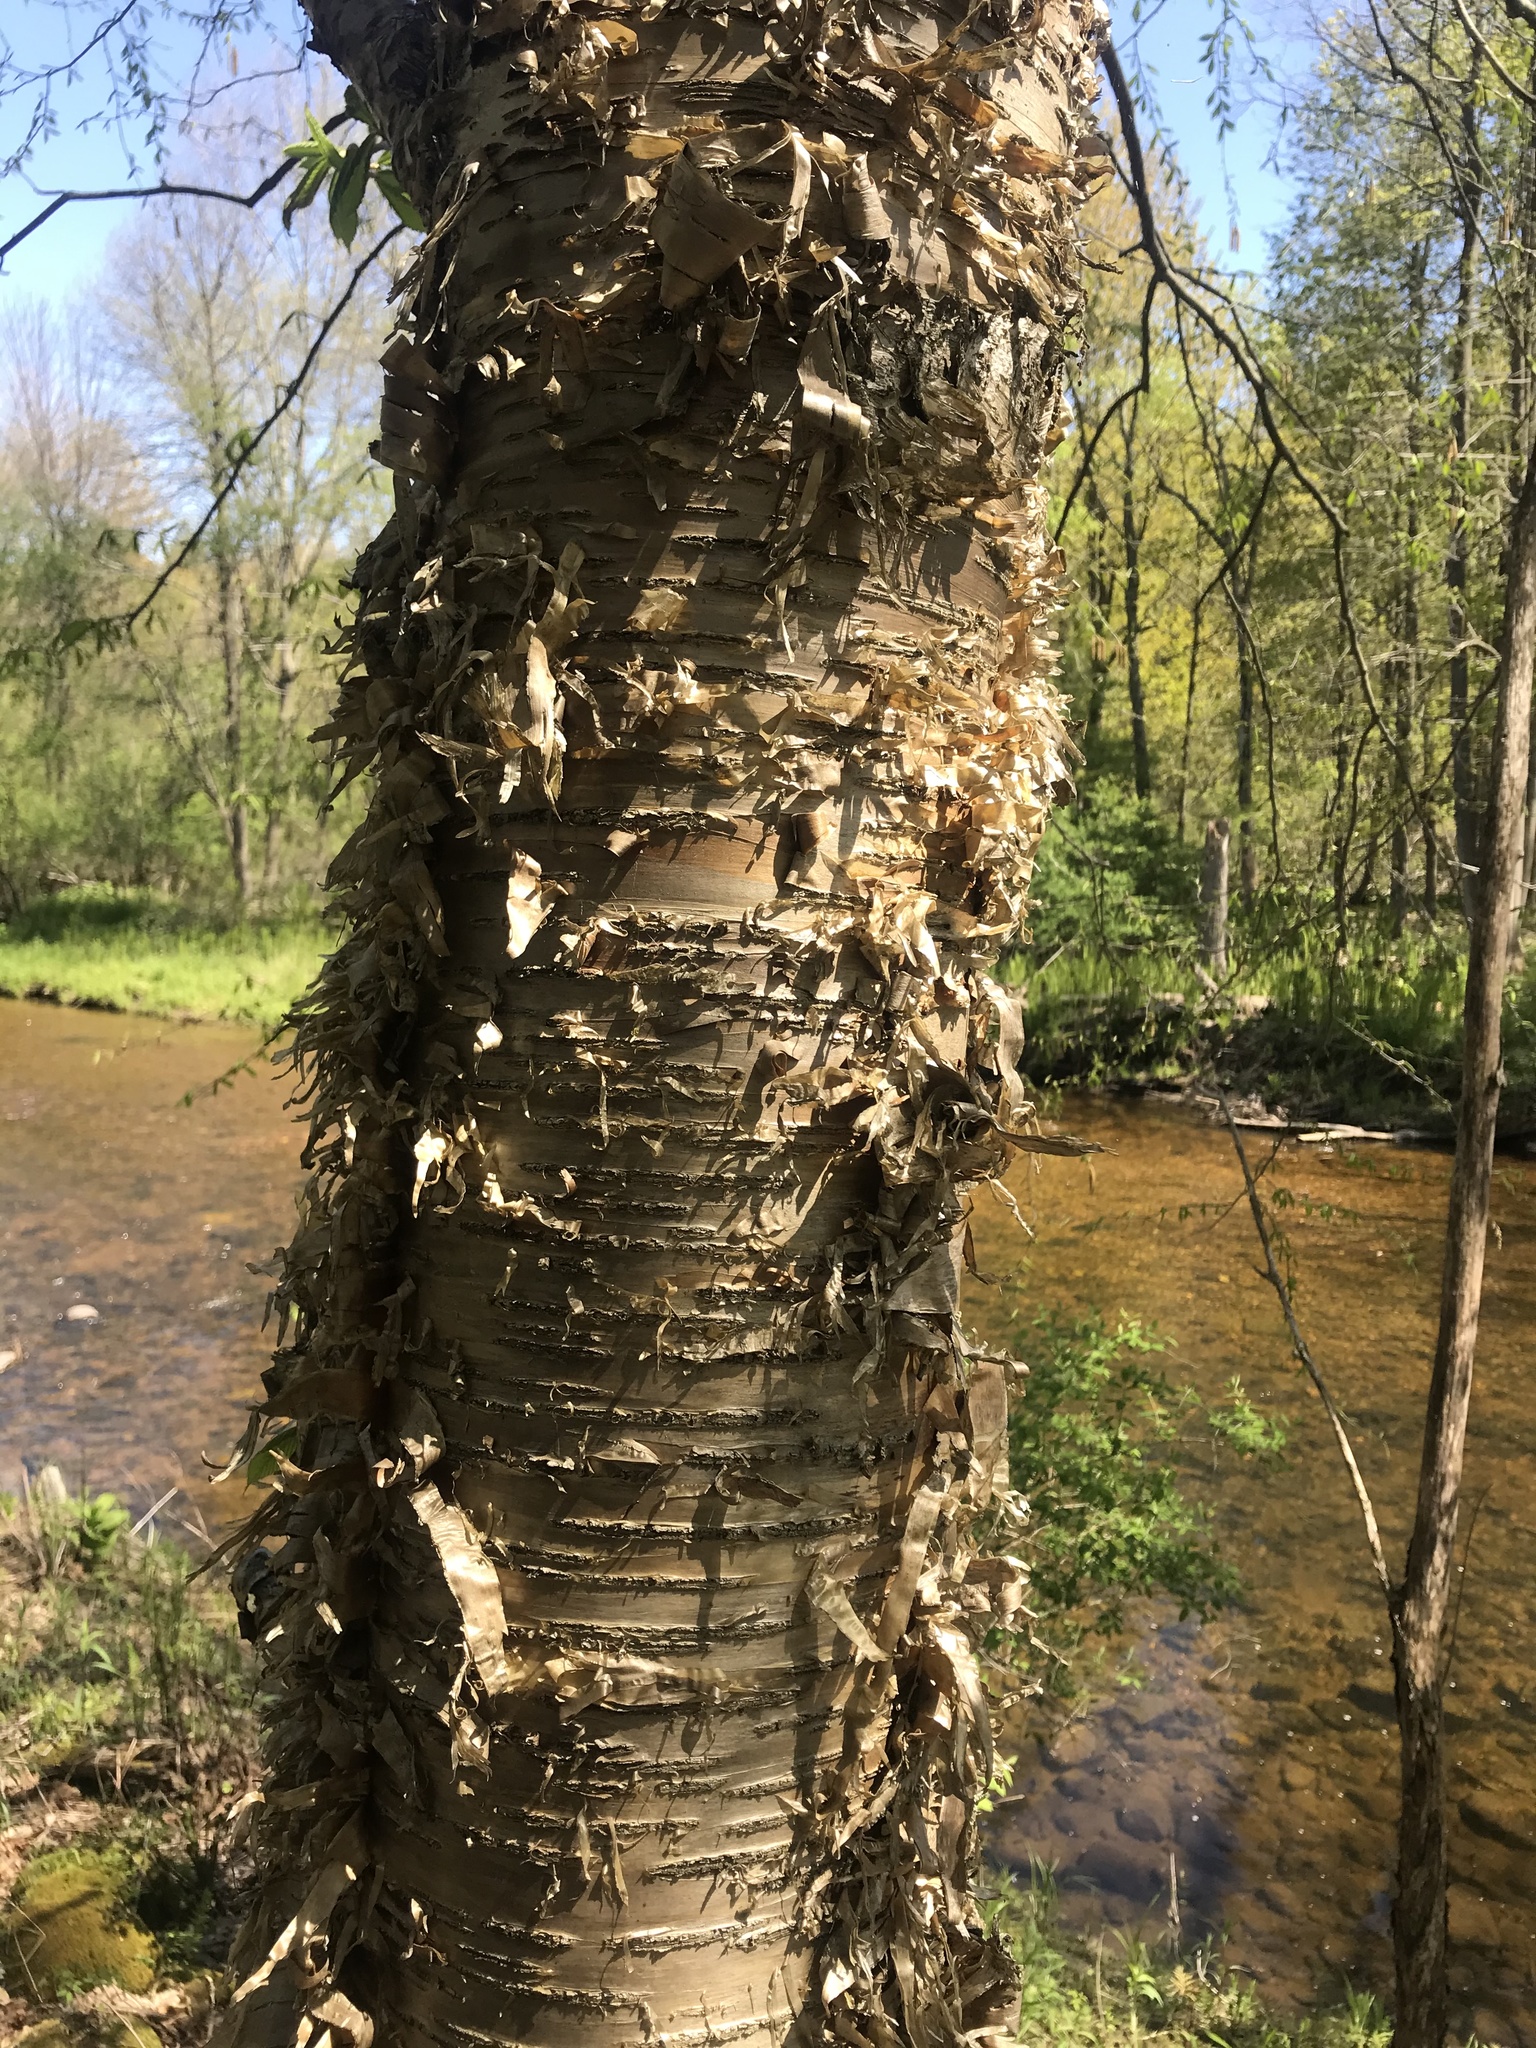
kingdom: Plantae
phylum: Tracheophyta
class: Magnoliopsida
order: Fagales
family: Betulaceae
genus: Betula
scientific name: Betula alleghaniensis
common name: Yellow birch
